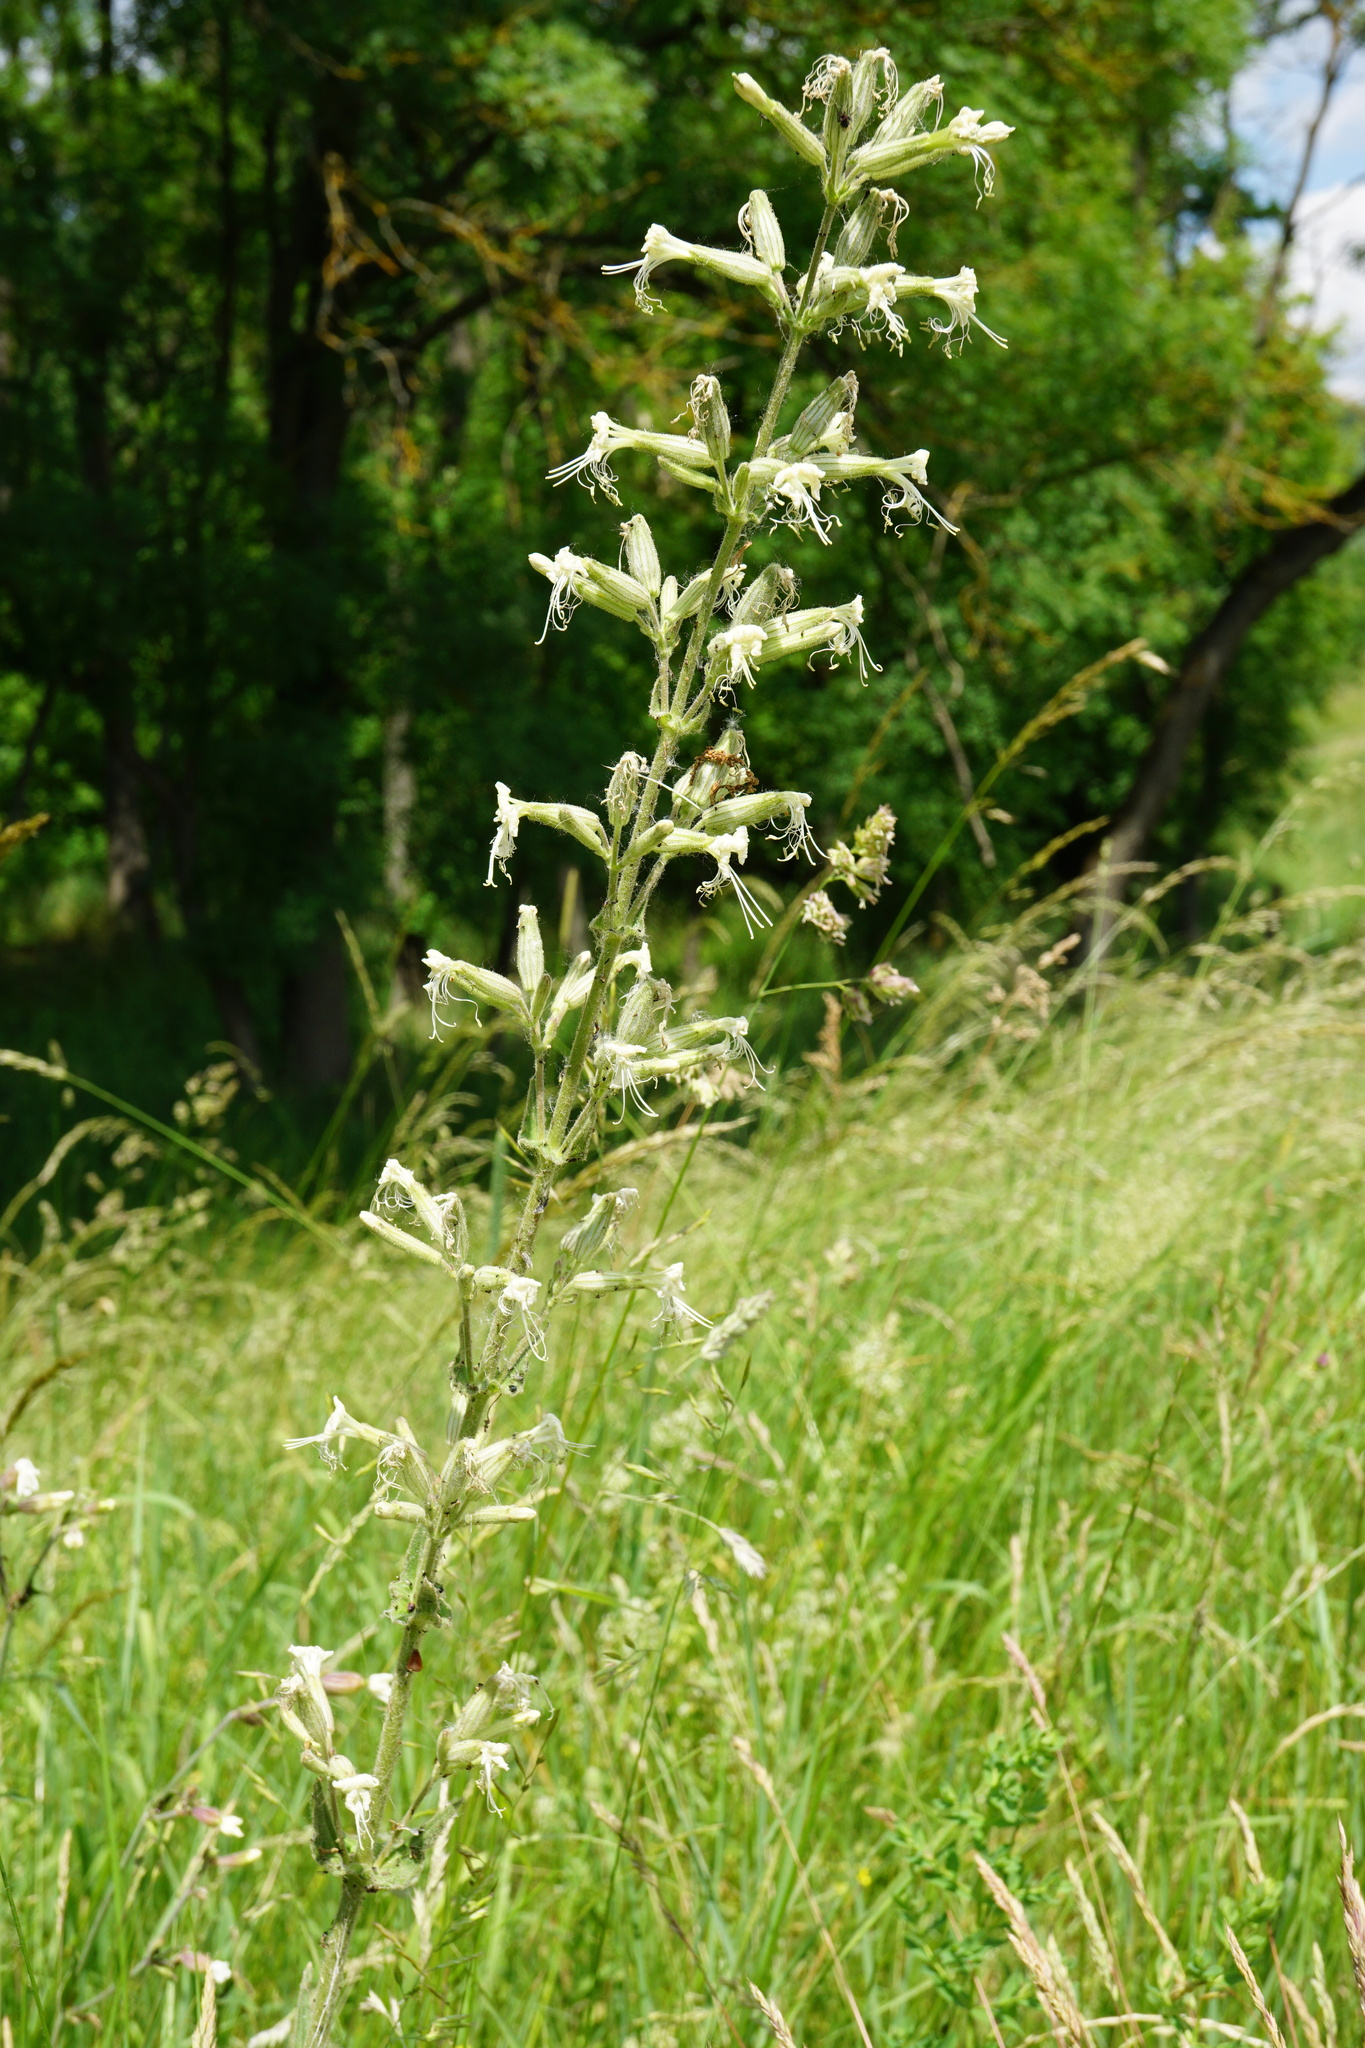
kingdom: Plantae
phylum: Tracheophyta
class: Magnoliopsida
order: Caryophyllales
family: Caryophyllaceae
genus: Silene
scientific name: Silene viscosa
